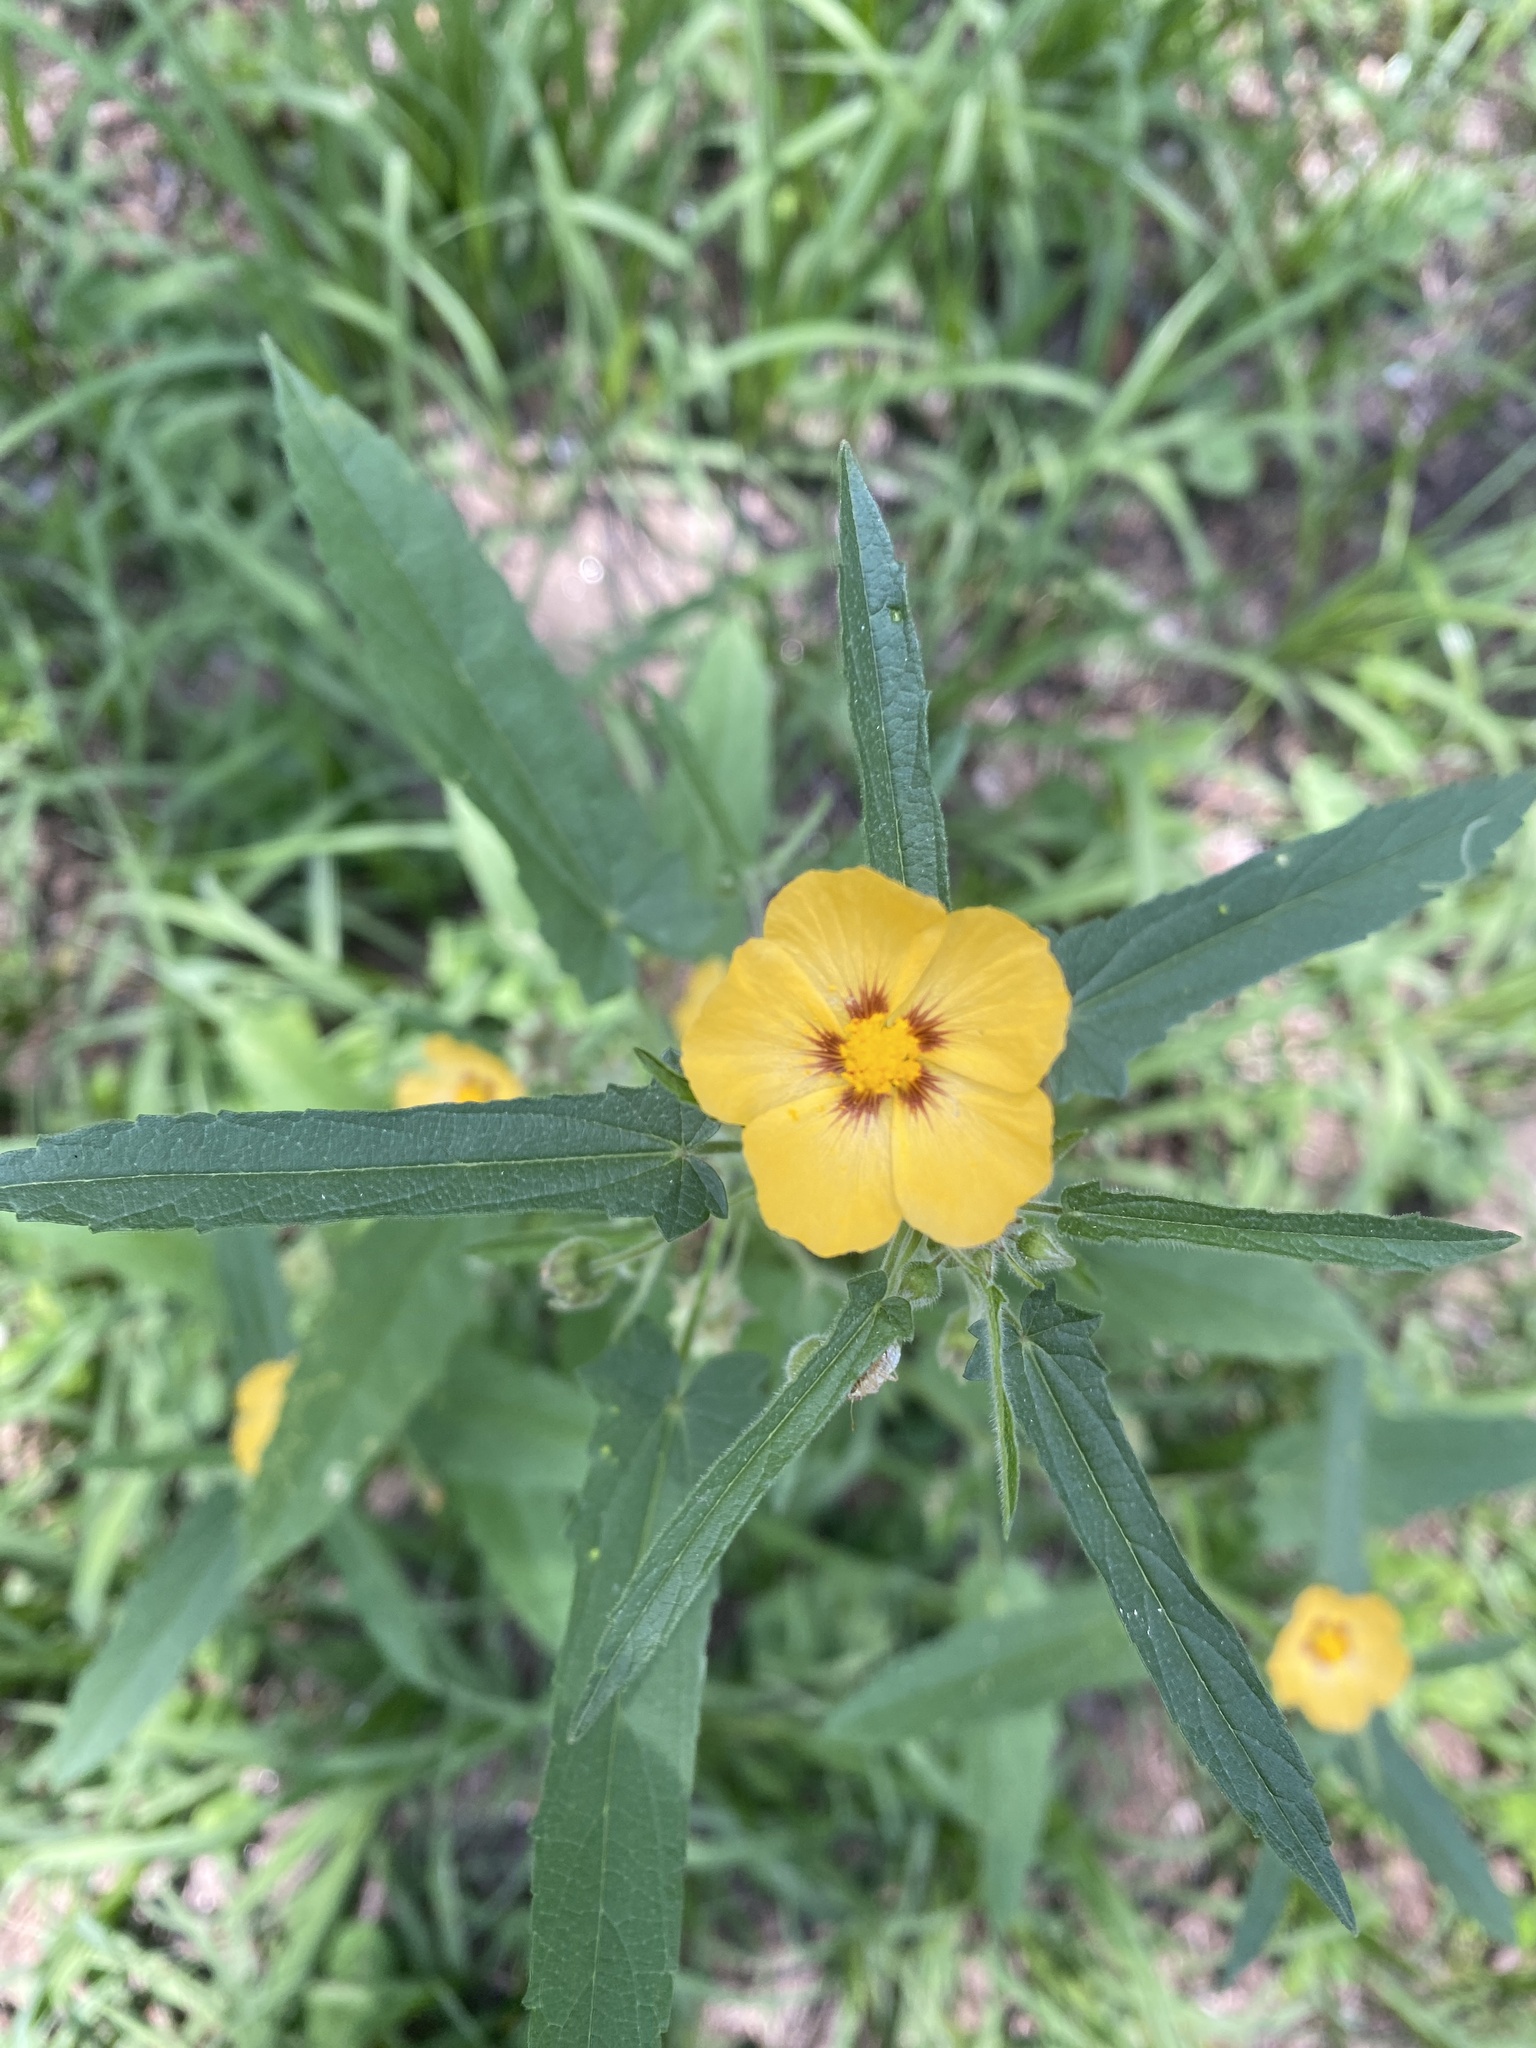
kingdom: Plantae
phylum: Tracheophyta
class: Magnoliopsida
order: Malvales
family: Malvaceae
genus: Gaya
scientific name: Gaya parviflora
